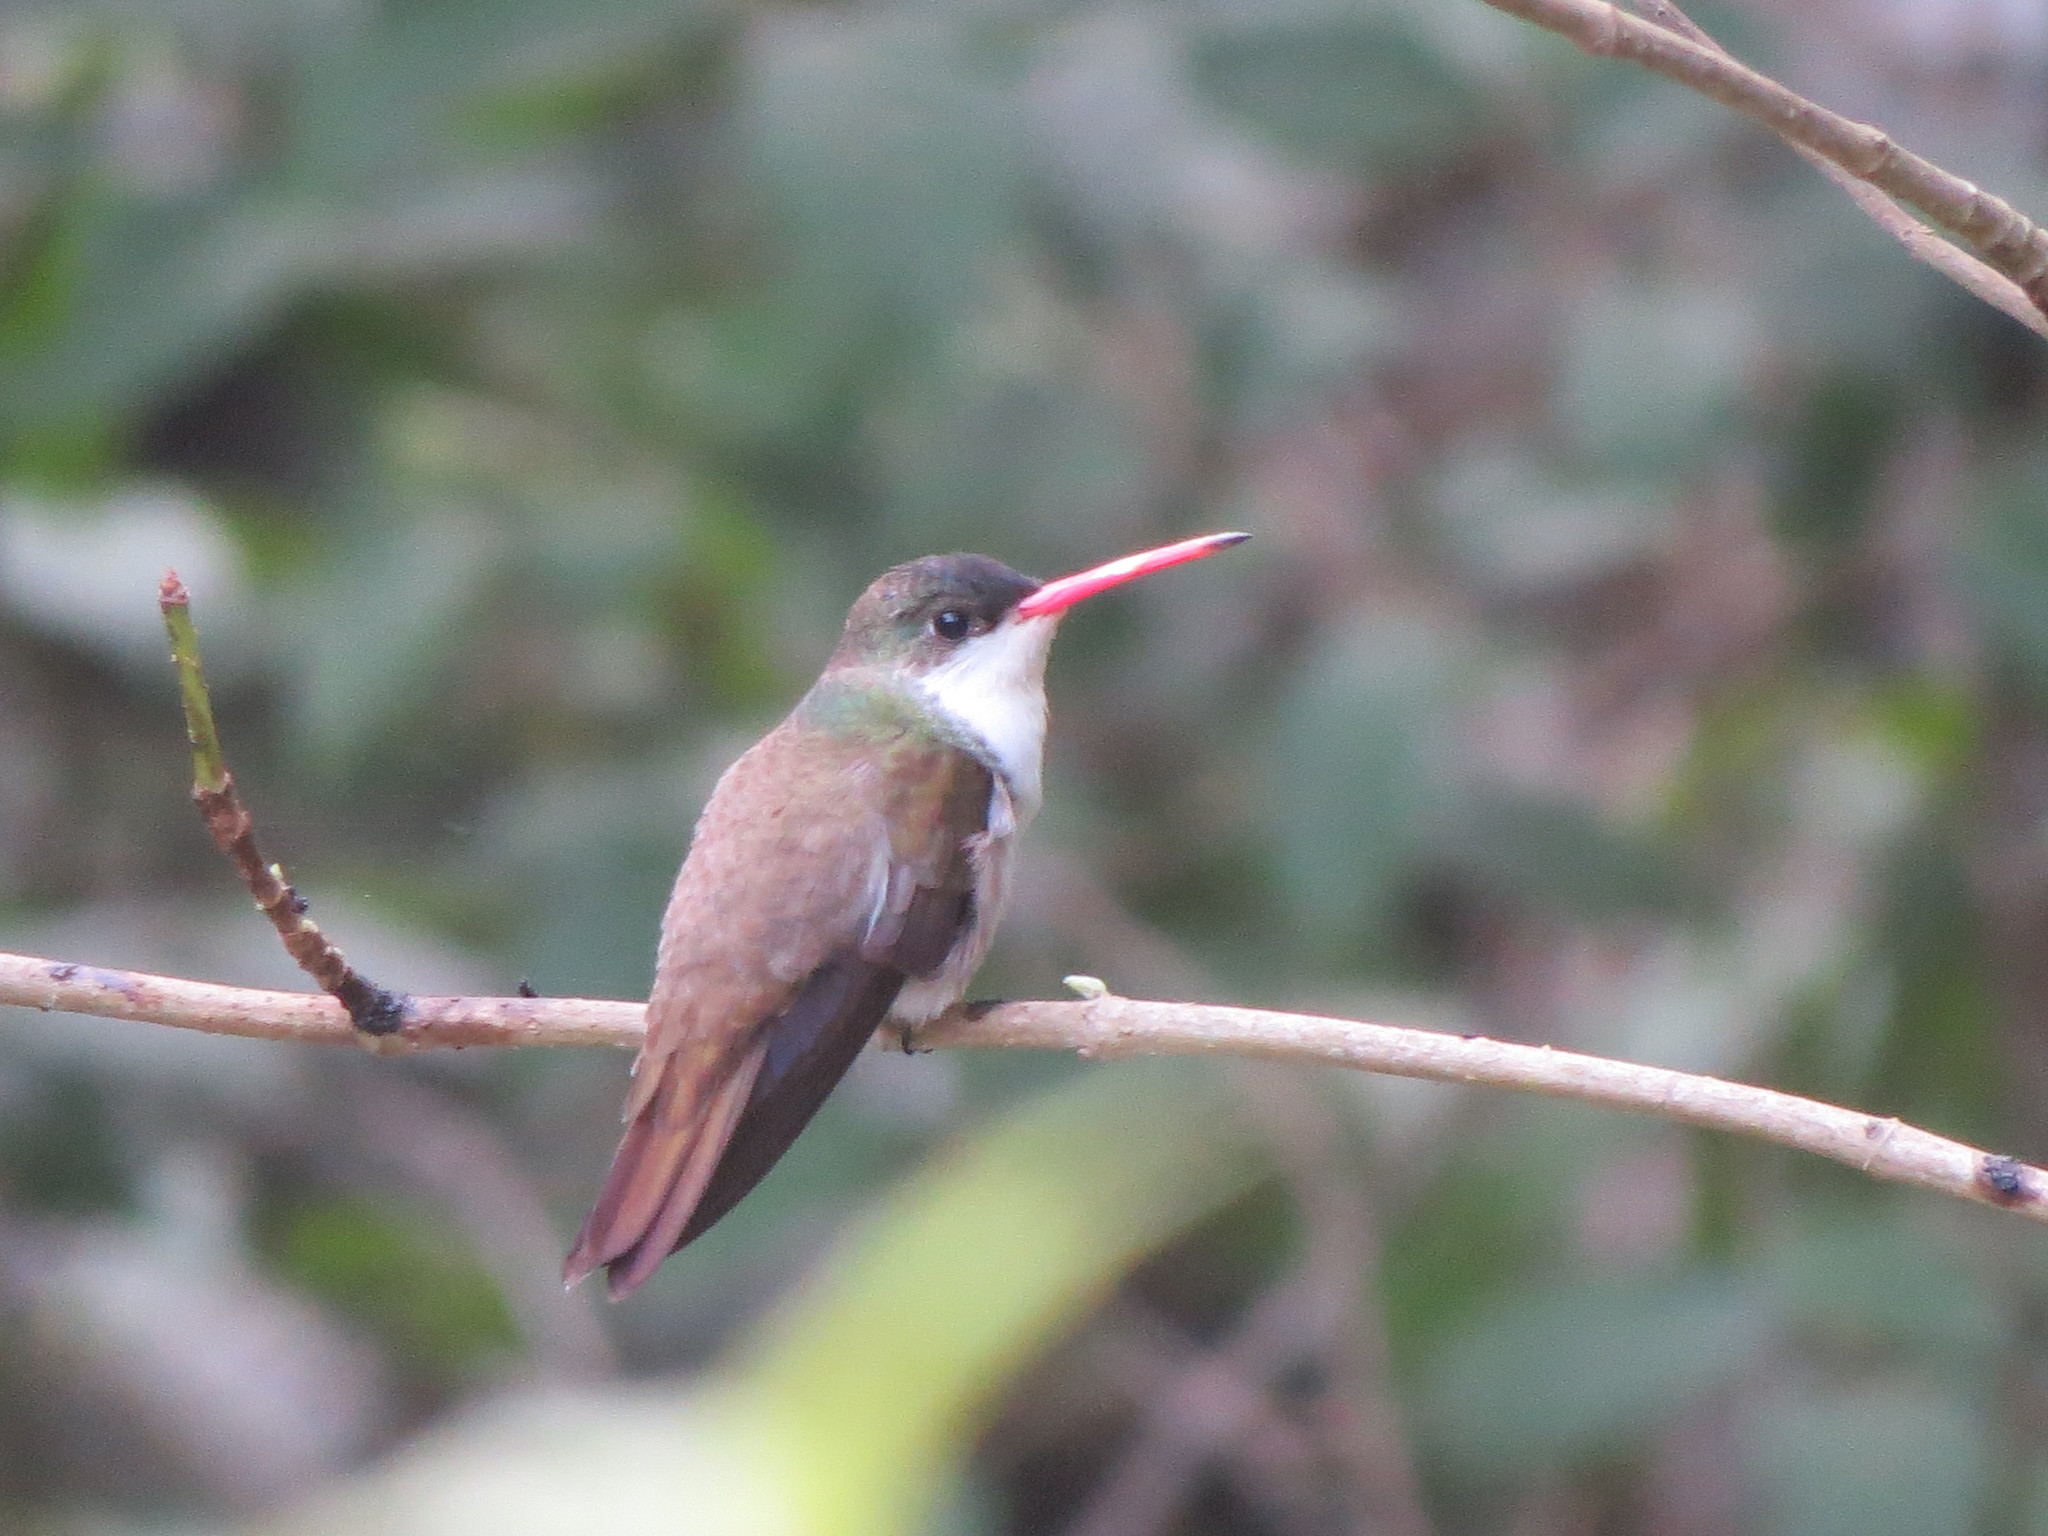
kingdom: Animalia
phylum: Chordata
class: Aves
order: Apodiformes
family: Trochilidae
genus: Leucolia
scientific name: Leucolia viridifrons
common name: Green-fronted hummingbird
